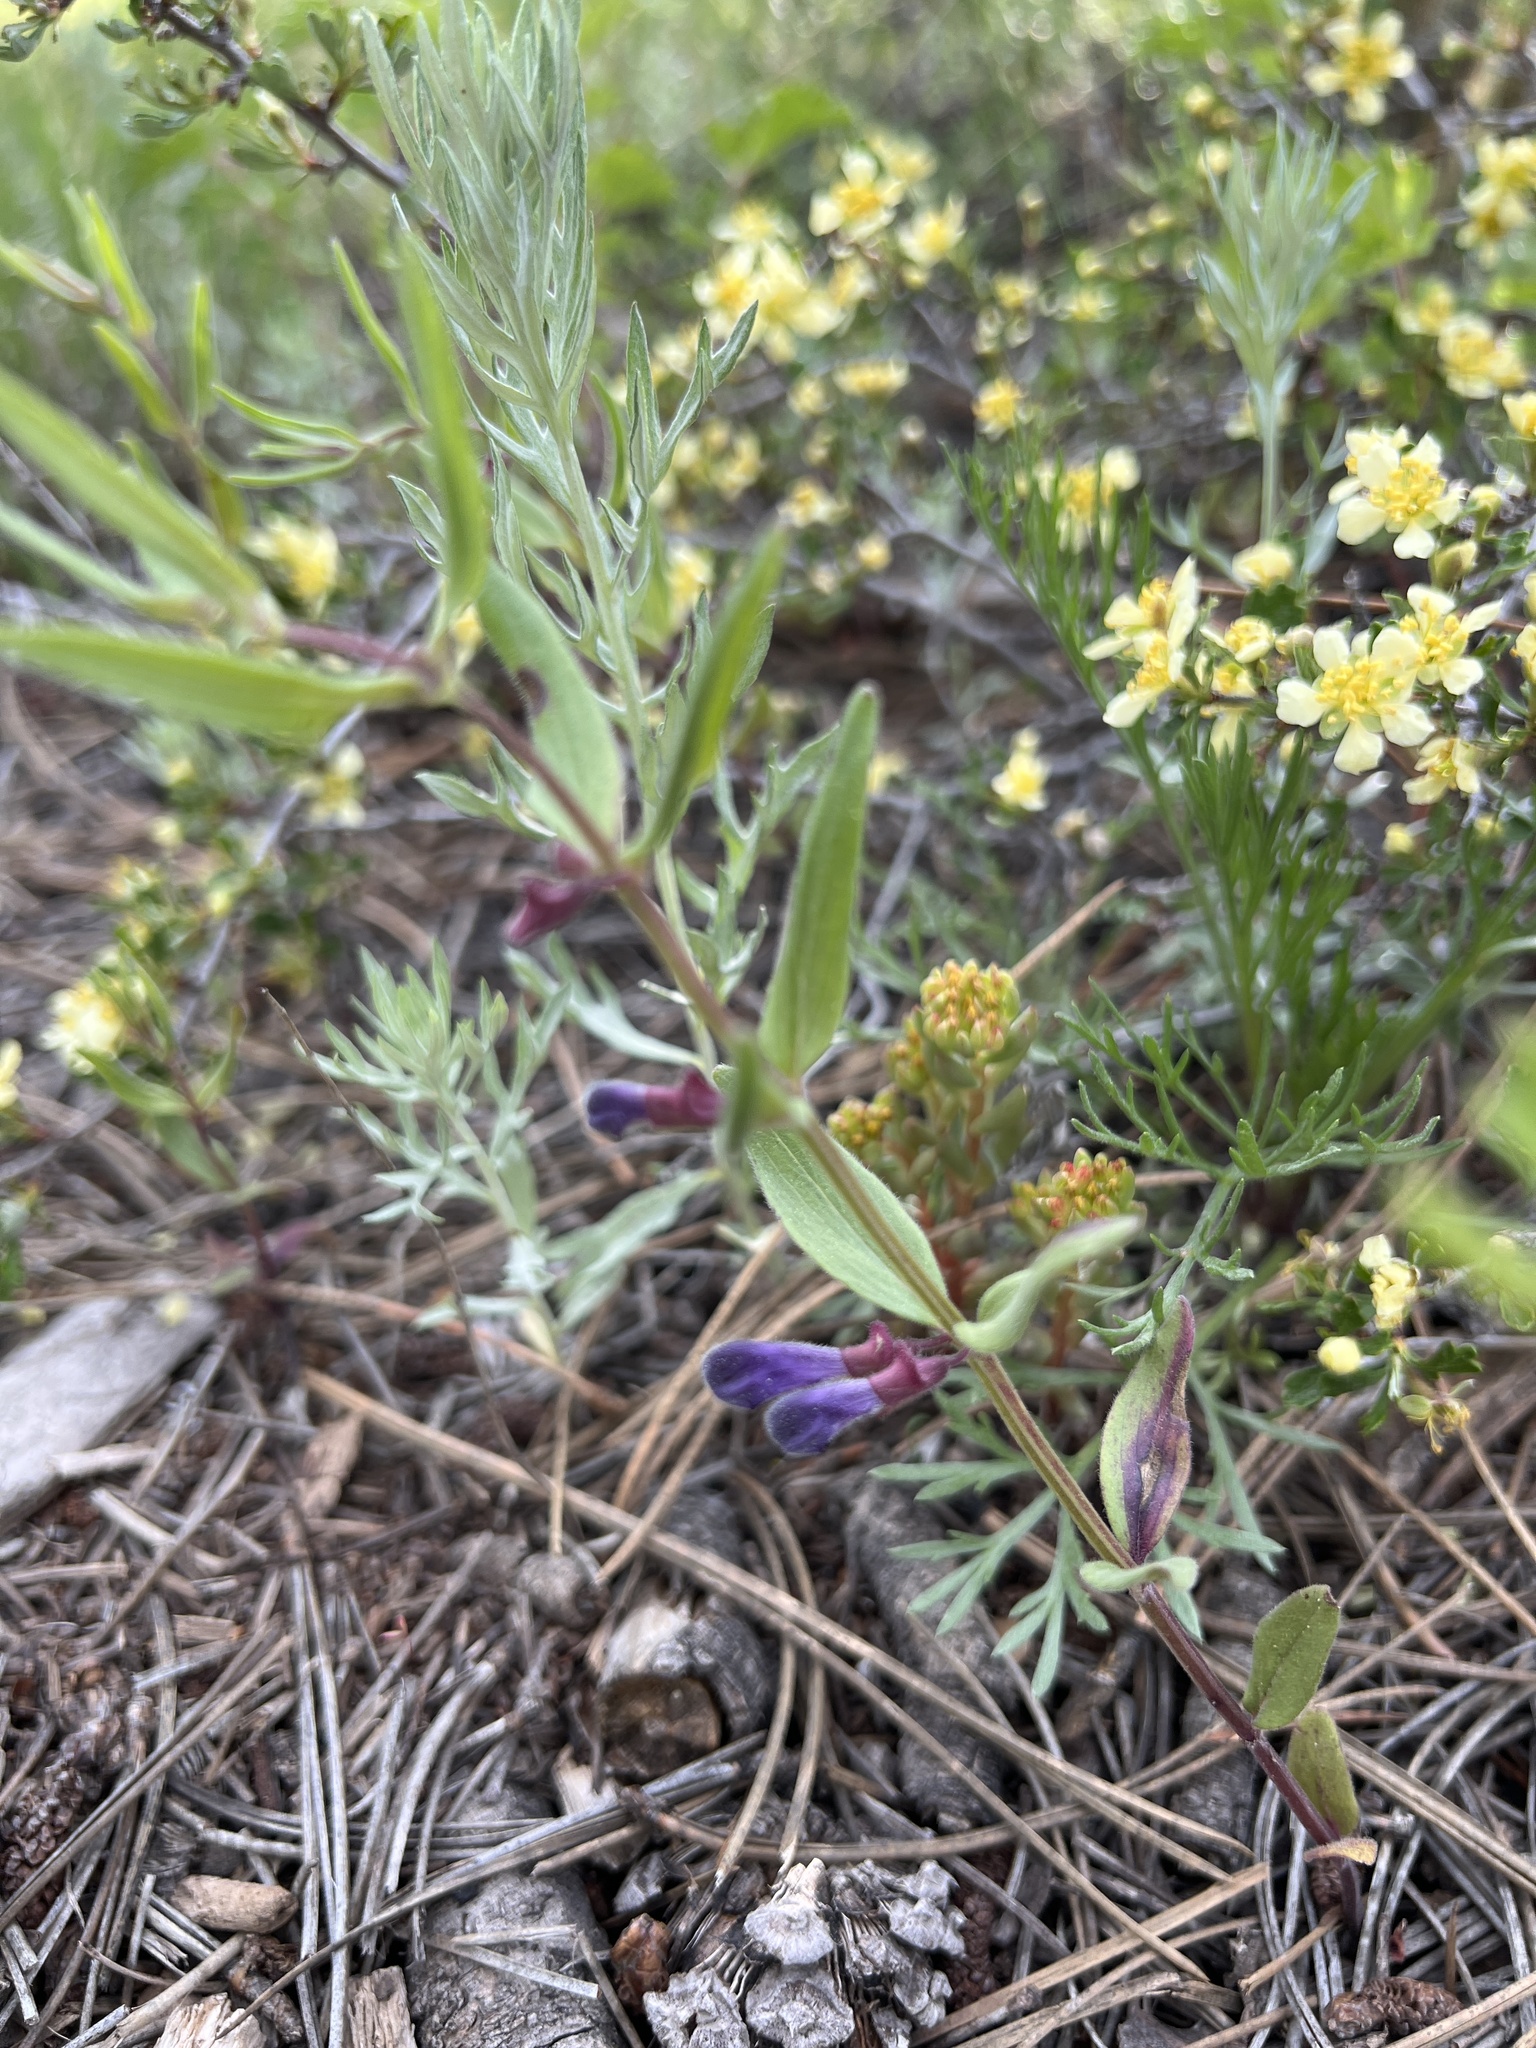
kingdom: Plantae
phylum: Tracheophyta
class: Magnoliopsida
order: Lamiales
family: Lamiaceae
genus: Scutellaria
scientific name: Scutellaria brittonii
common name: Britton's skullcap
